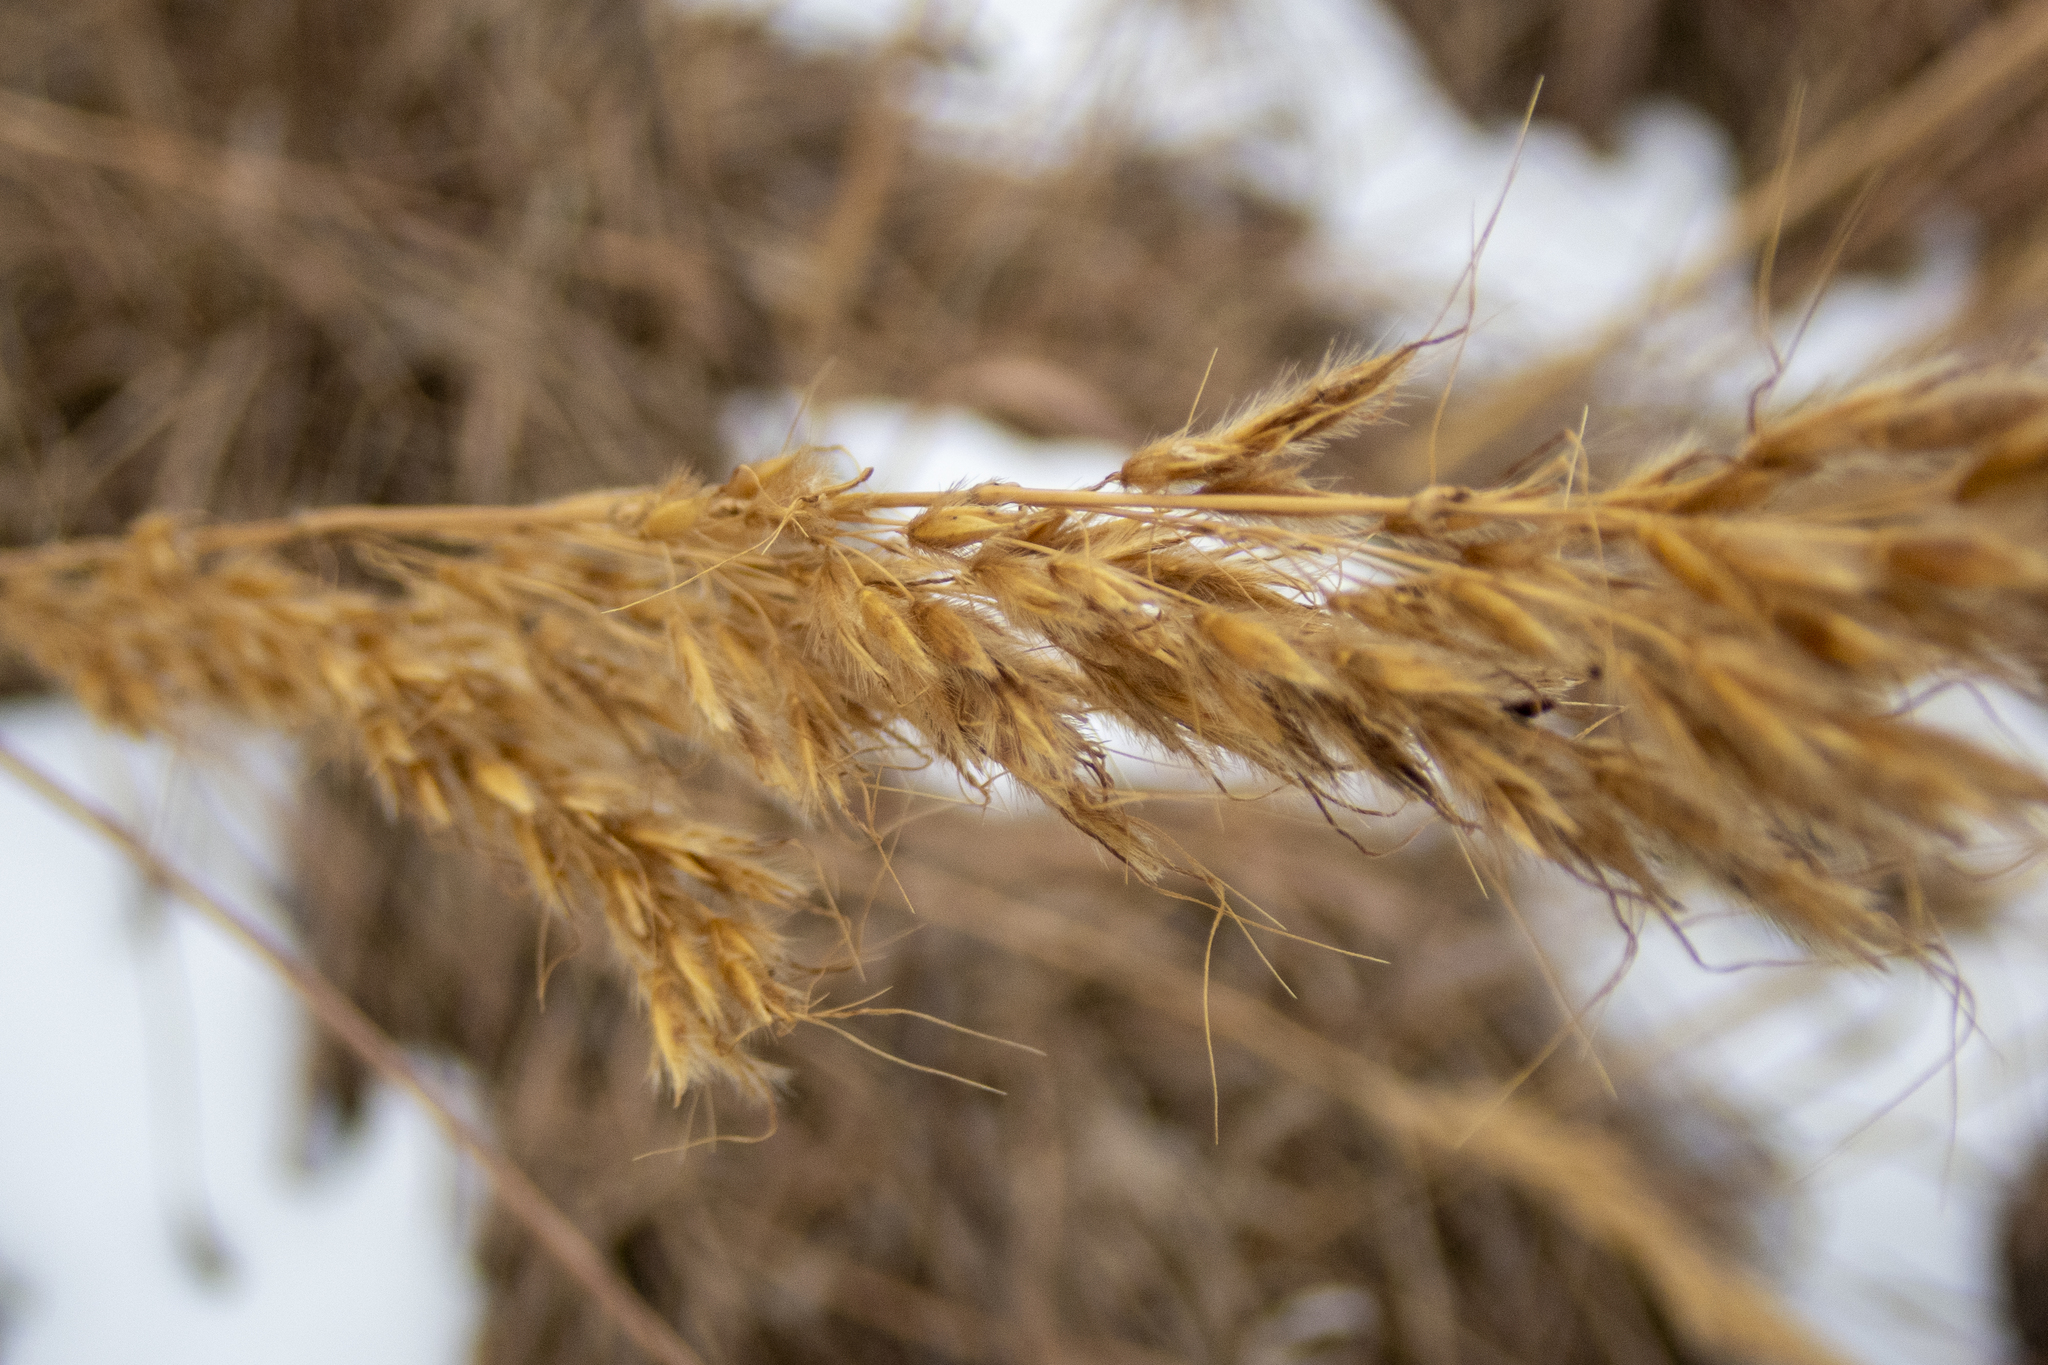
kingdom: Plantae
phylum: Tracheophyta
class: Liliopsida
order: Poales
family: Poaceae
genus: Sorghastrum
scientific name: Sorghastrum nutans
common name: Indian grass
